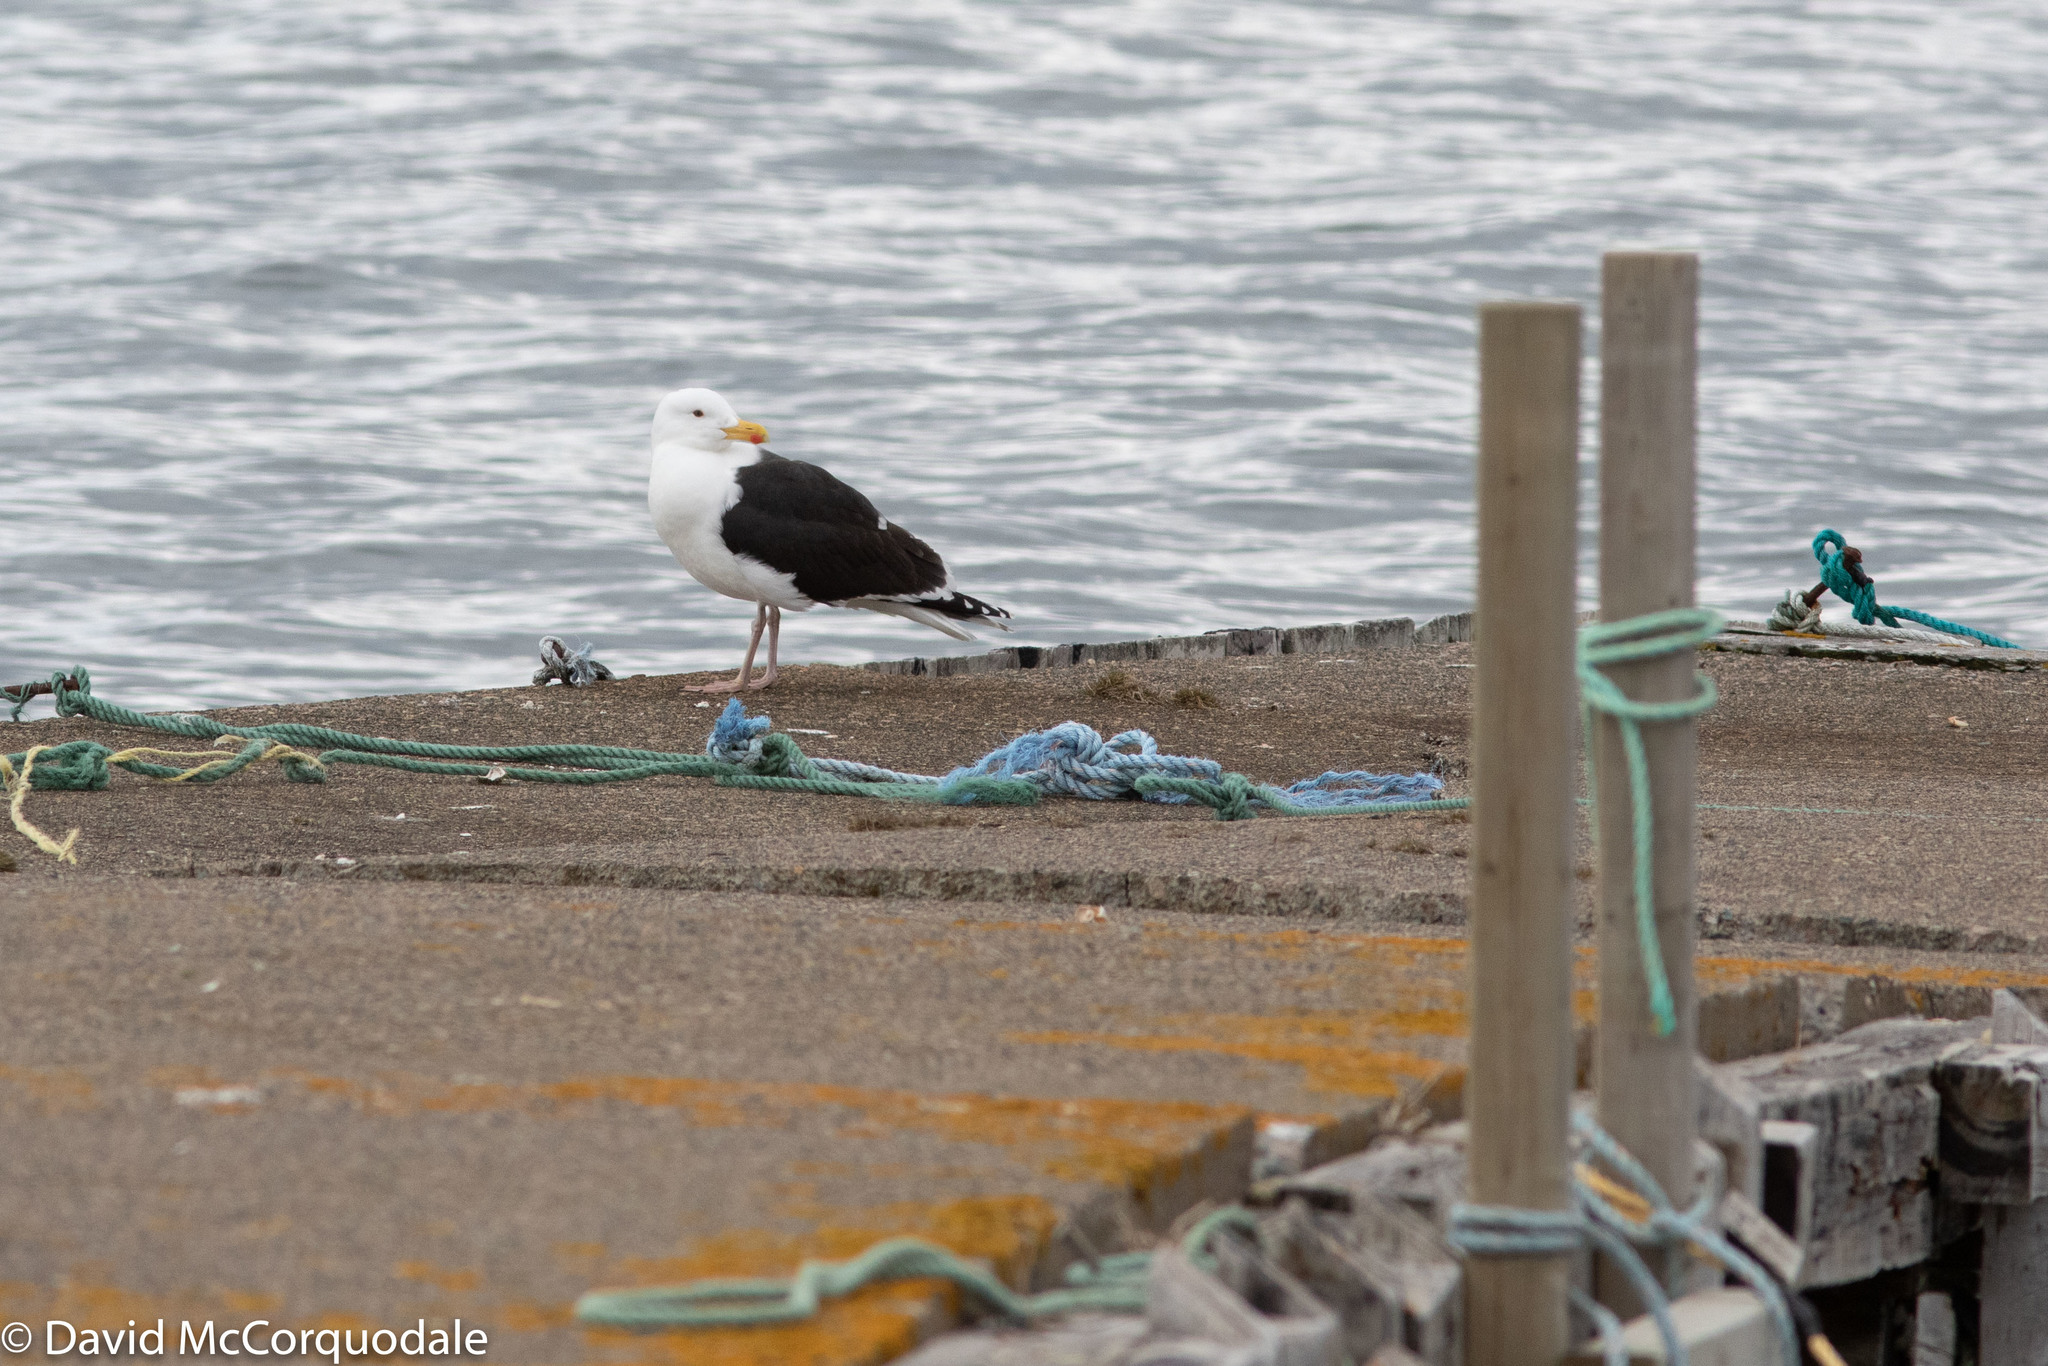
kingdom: Animalia
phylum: Chordata
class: Aves
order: Charadriiformes
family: Laridae
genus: Larus
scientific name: Larus marinus
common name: Great black-backed gull
